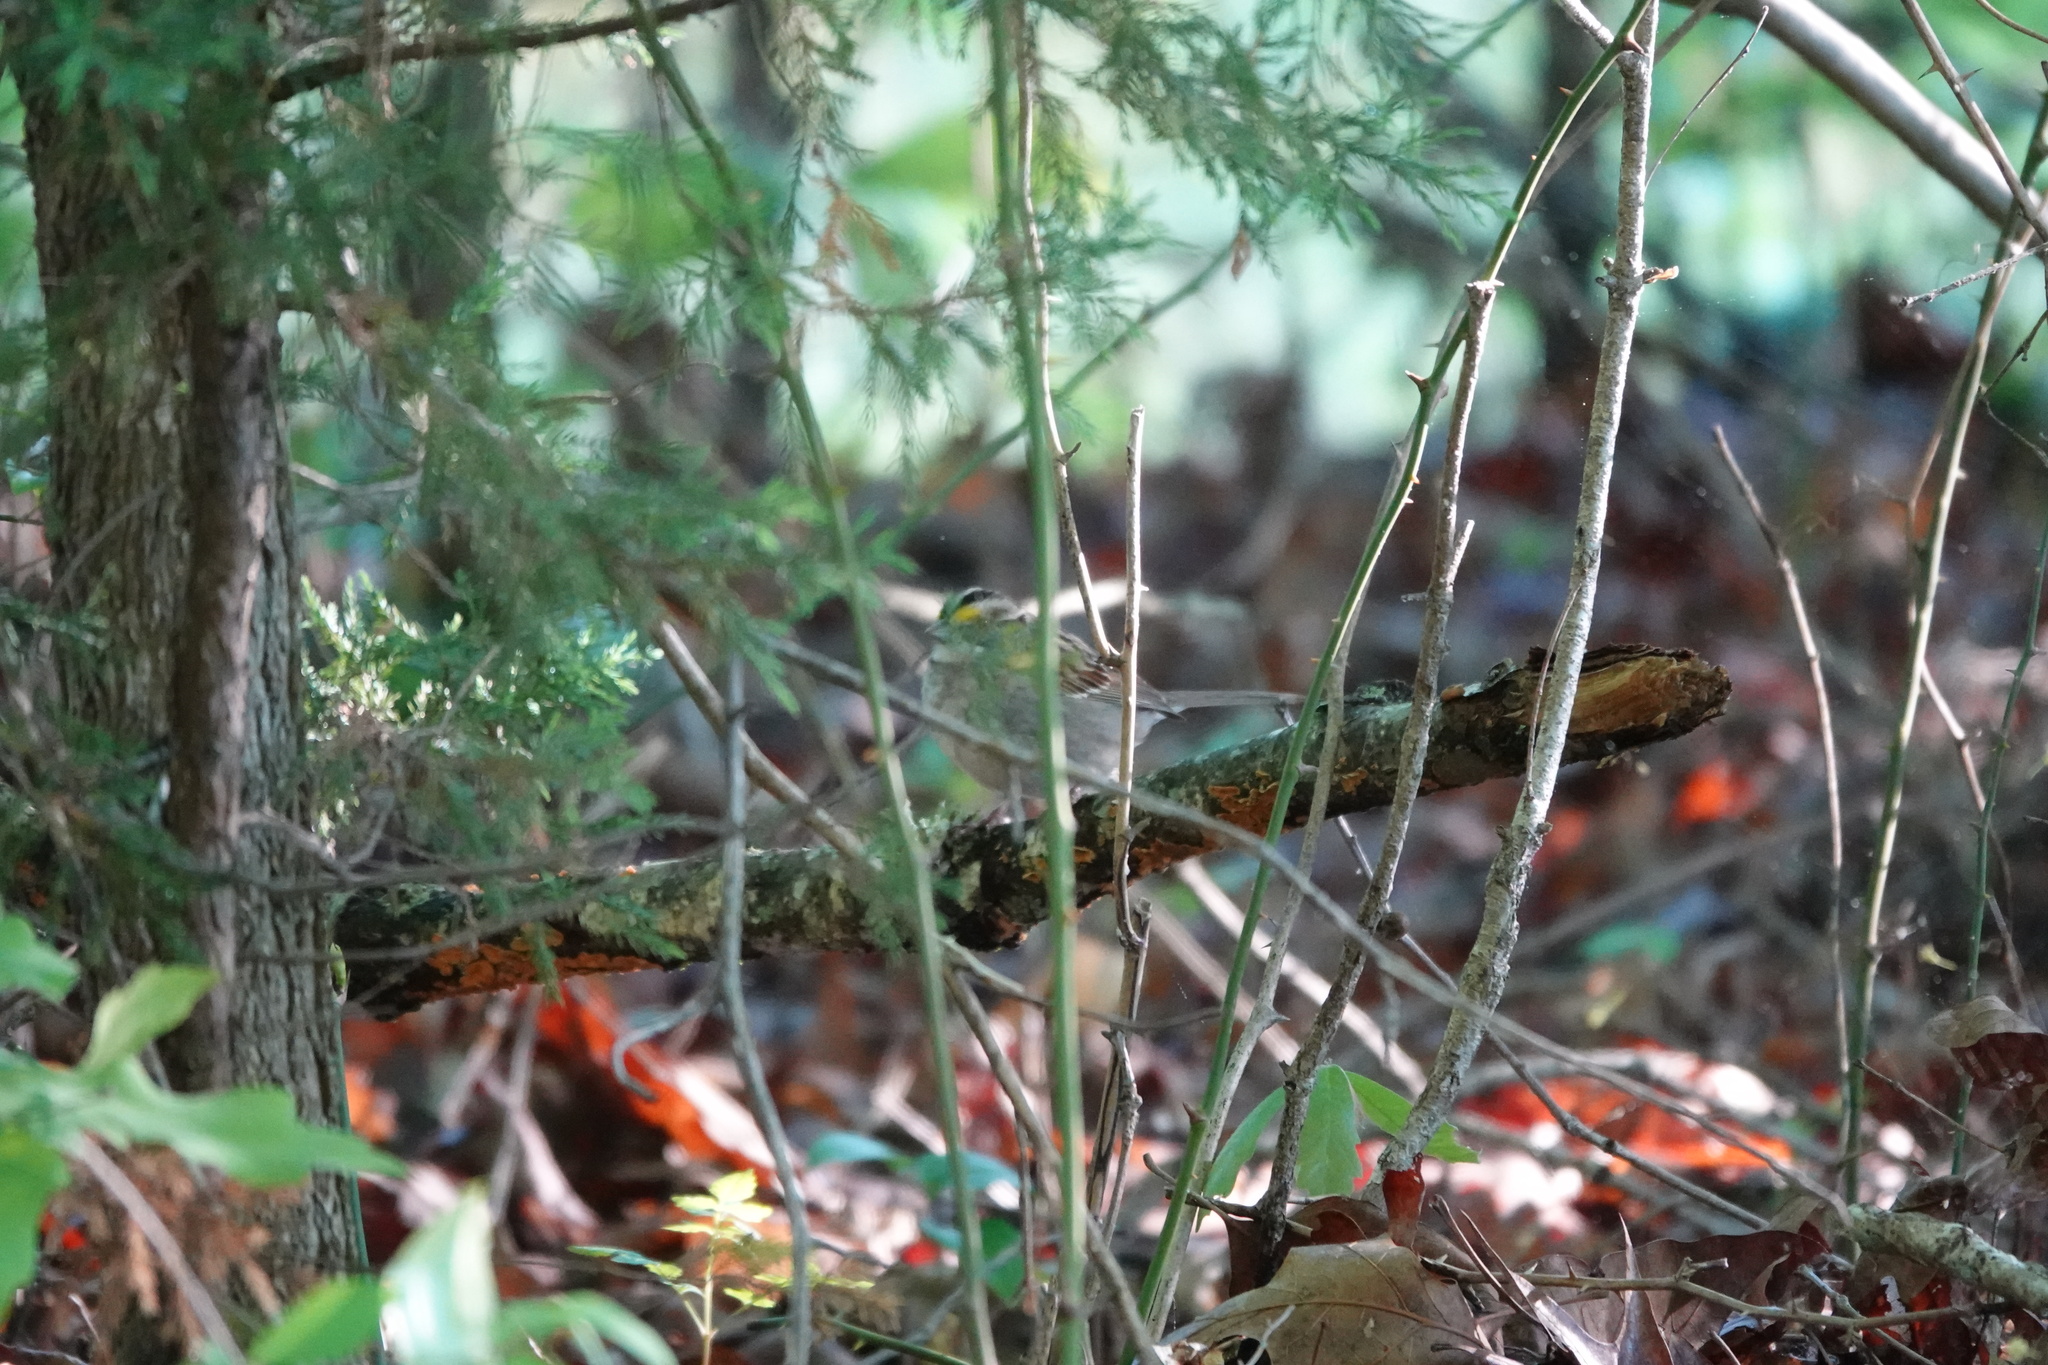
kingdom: Animalia
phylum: Chordata
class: Aves
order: Passeriformes
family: Passerellidae
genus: Zonotrichia
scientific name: Zonotrichia albicollis
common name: White-throated sparrow
